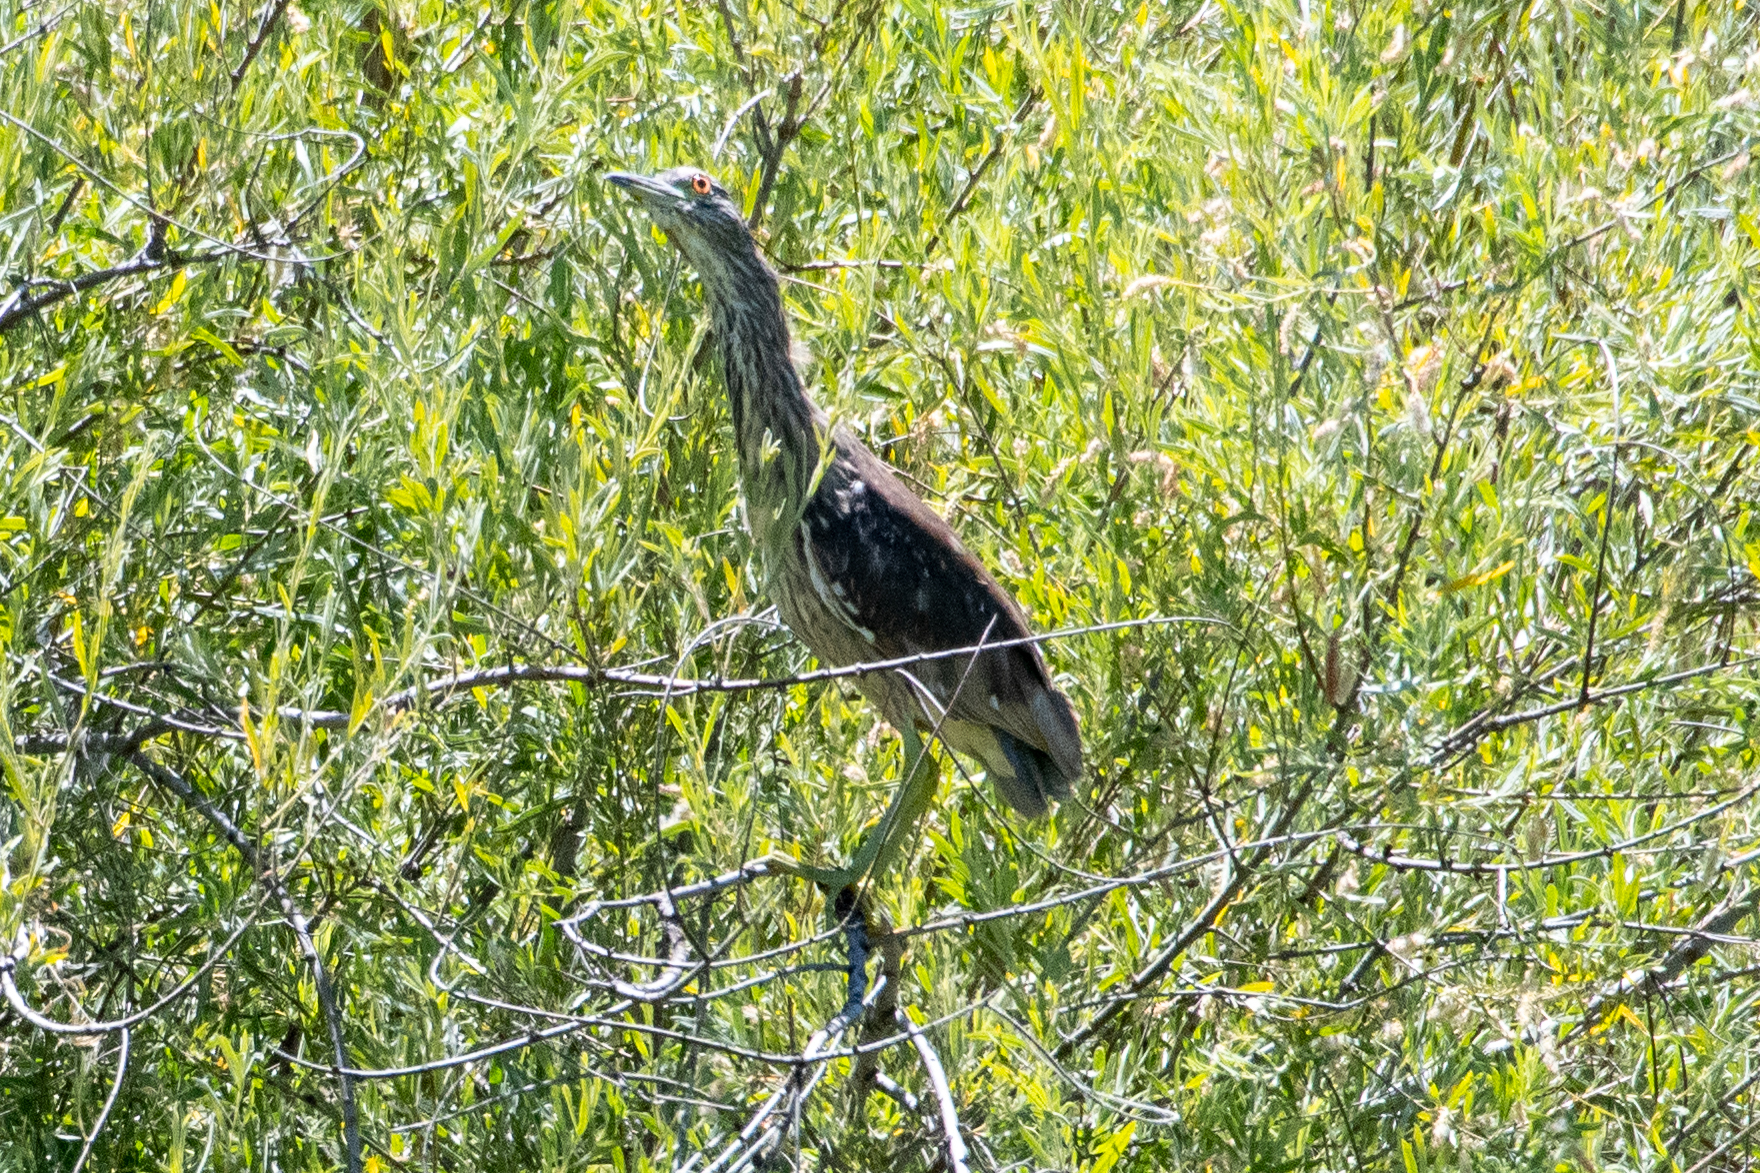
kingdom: Animalia
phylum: Chordata
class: Aves
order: Pelecaniformes
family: Ardeidae
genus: Nycticorax
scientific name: Nycticorax nycticorax
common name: Black-crowned night heron
